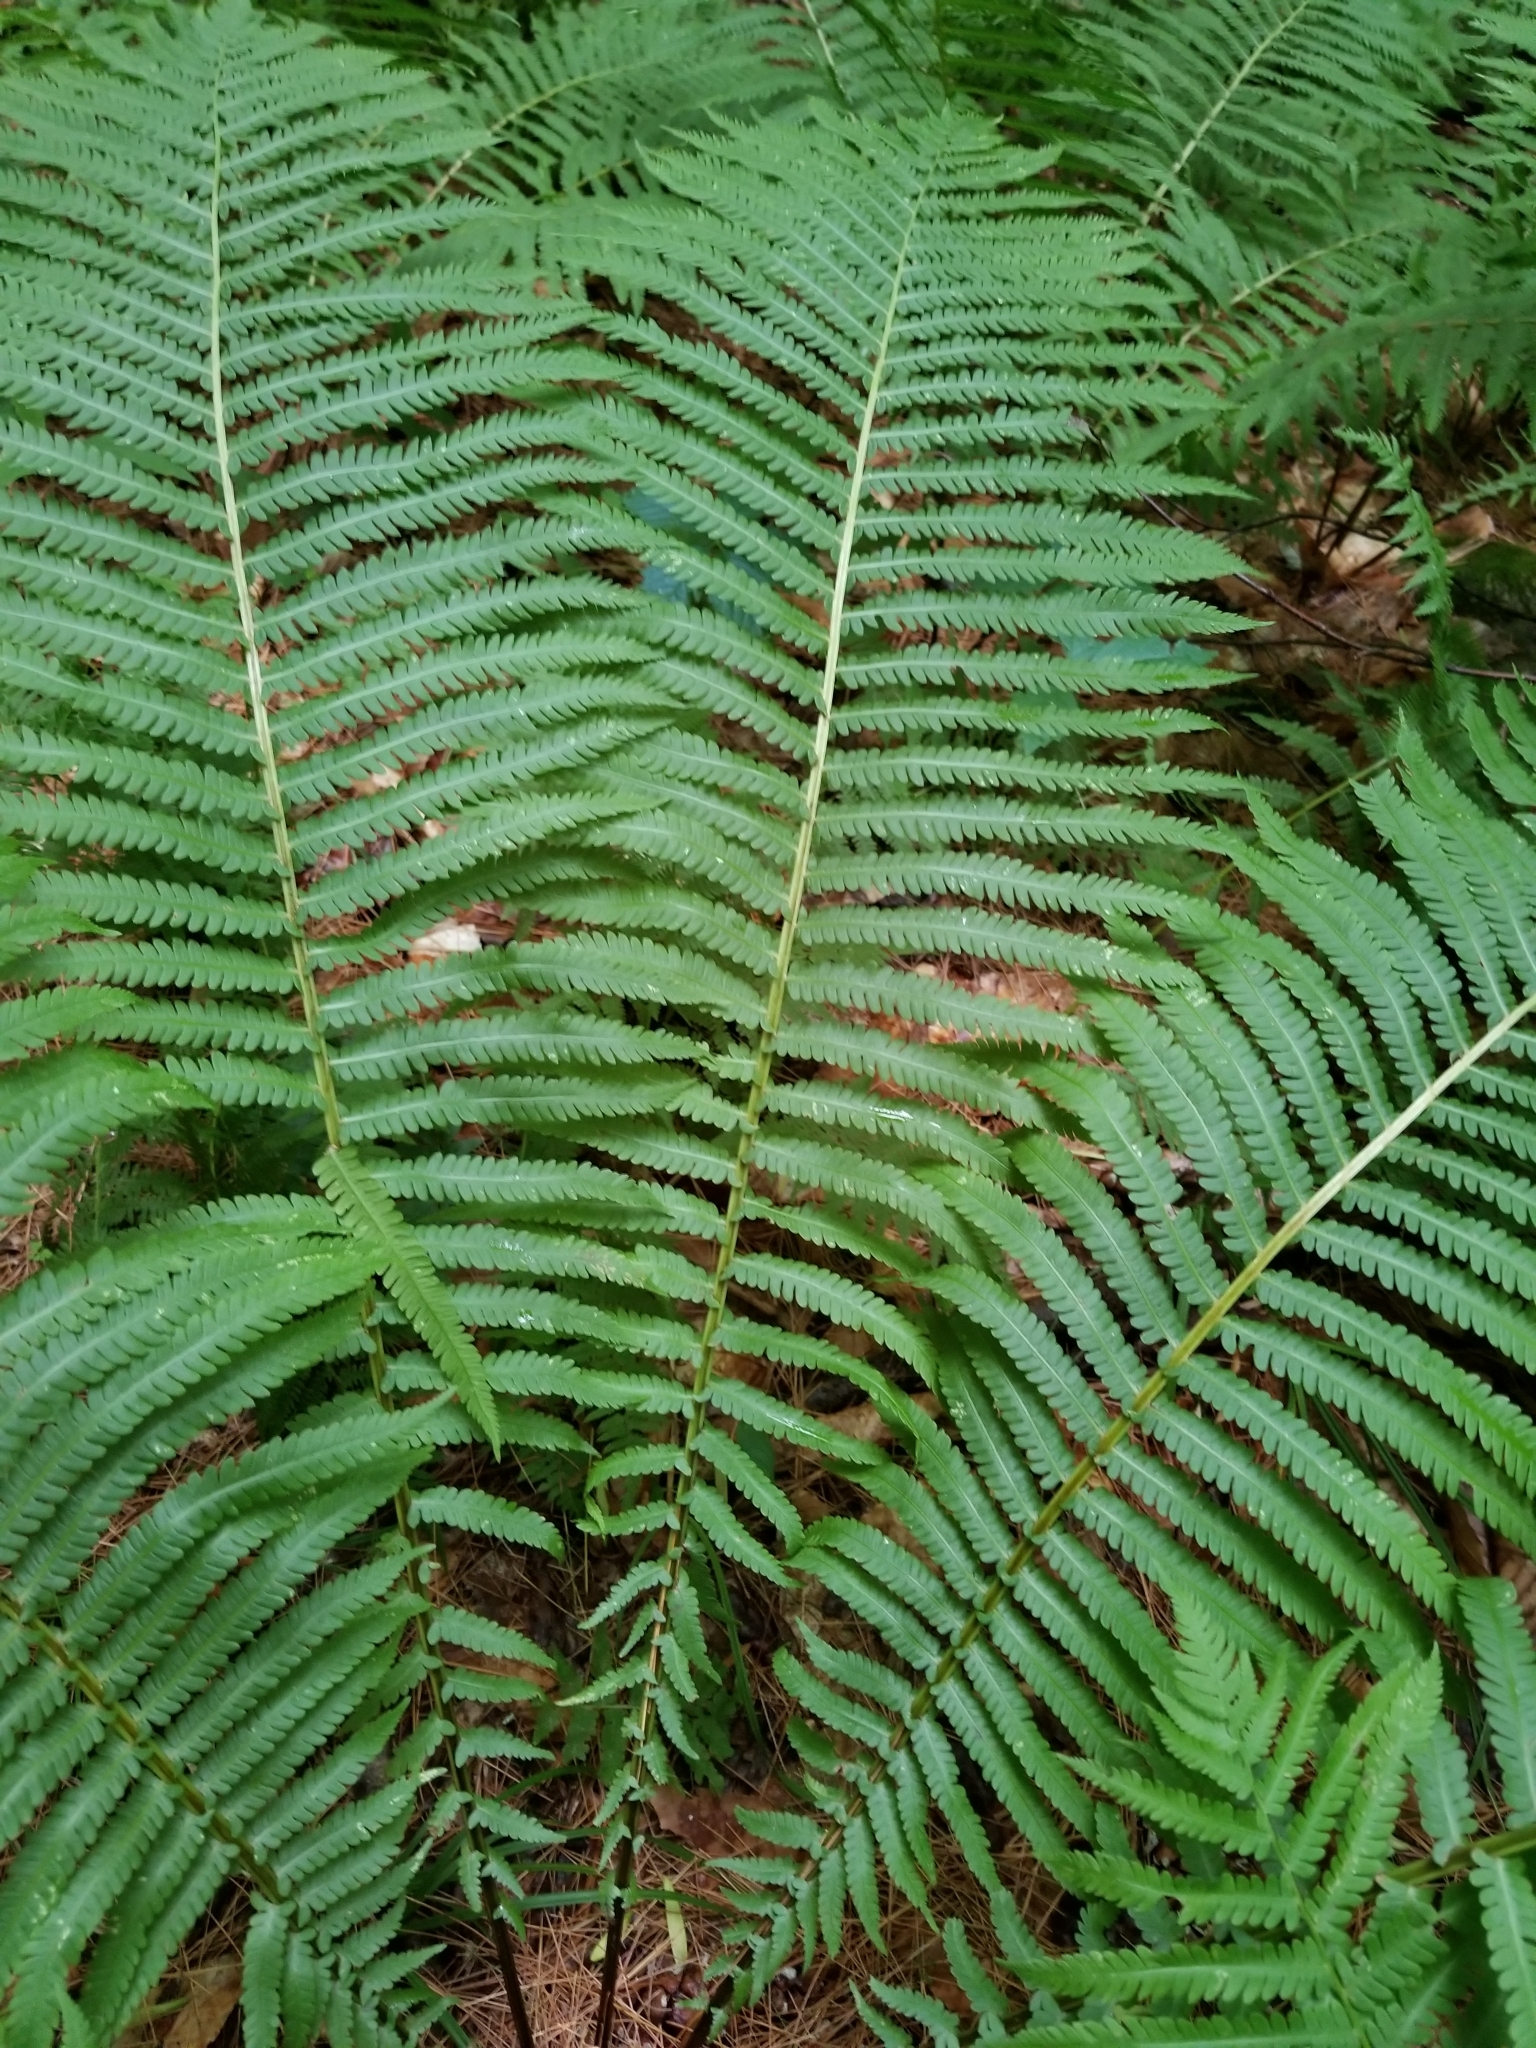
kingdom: Plantae
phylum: Tracheophyta
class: Polypodiopsida
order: Polypodiales
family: Onocleaceae
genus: Matteuccia
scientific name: Matteuccia struthiopteris
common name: Ostrich fern
